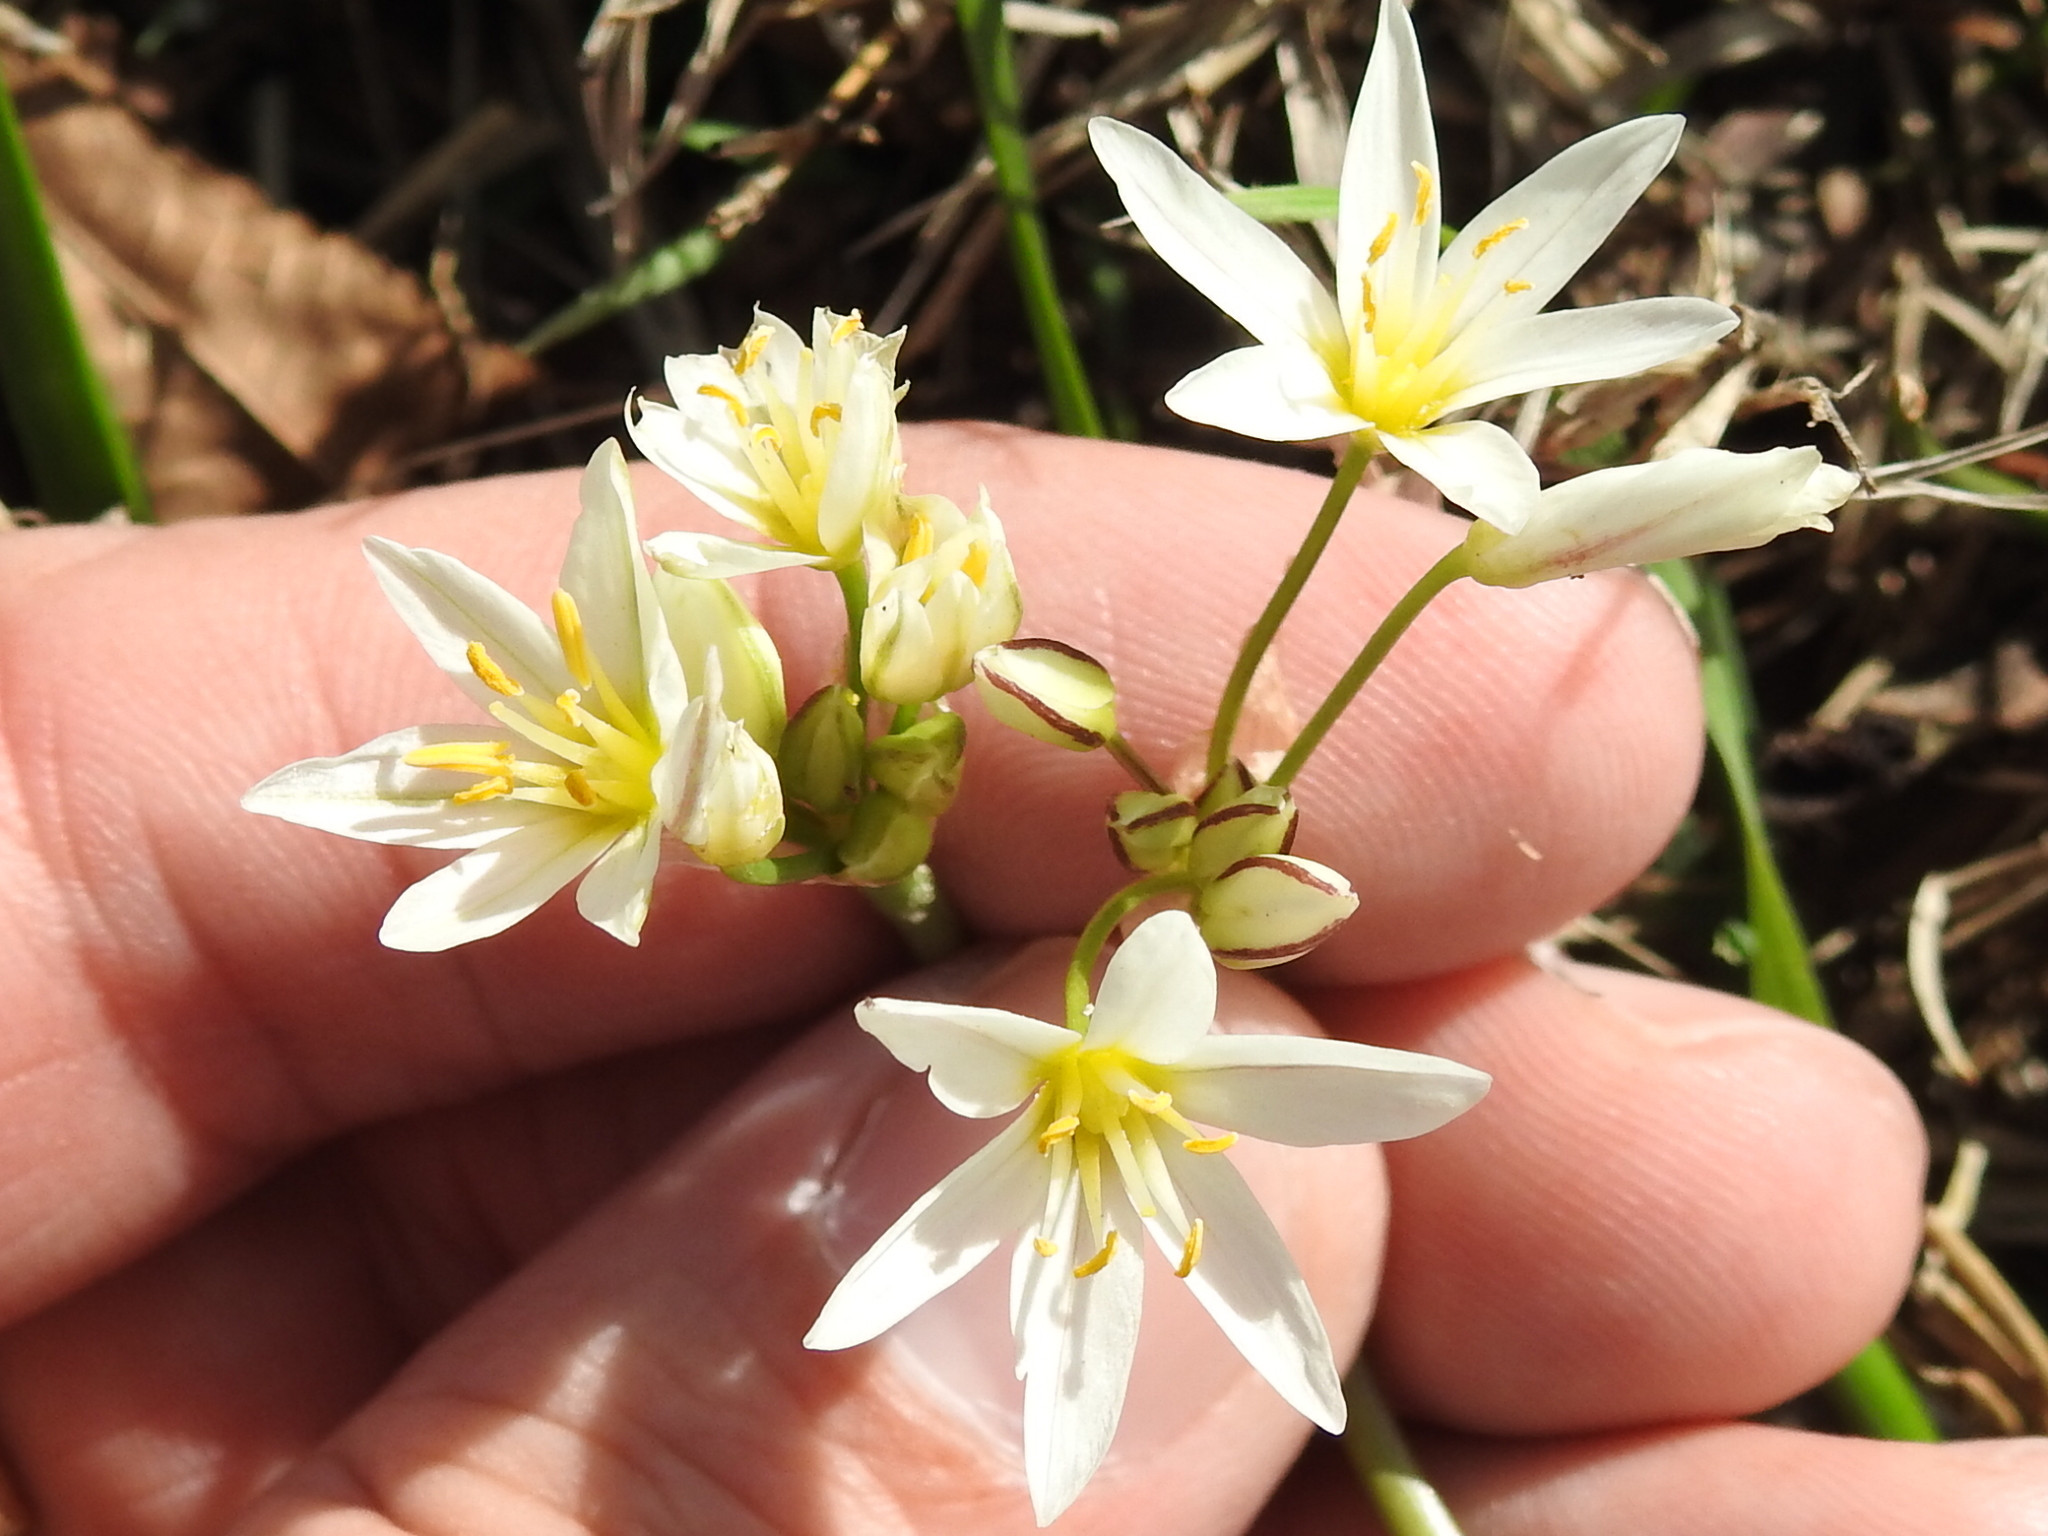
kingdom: Plantae
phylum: Tracheophyta
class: Liliopsida
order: Asparagales
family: Amaryllidaceae
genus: Nothoscordum
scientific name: Nothoscordum bivalve
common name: Crow-poison
